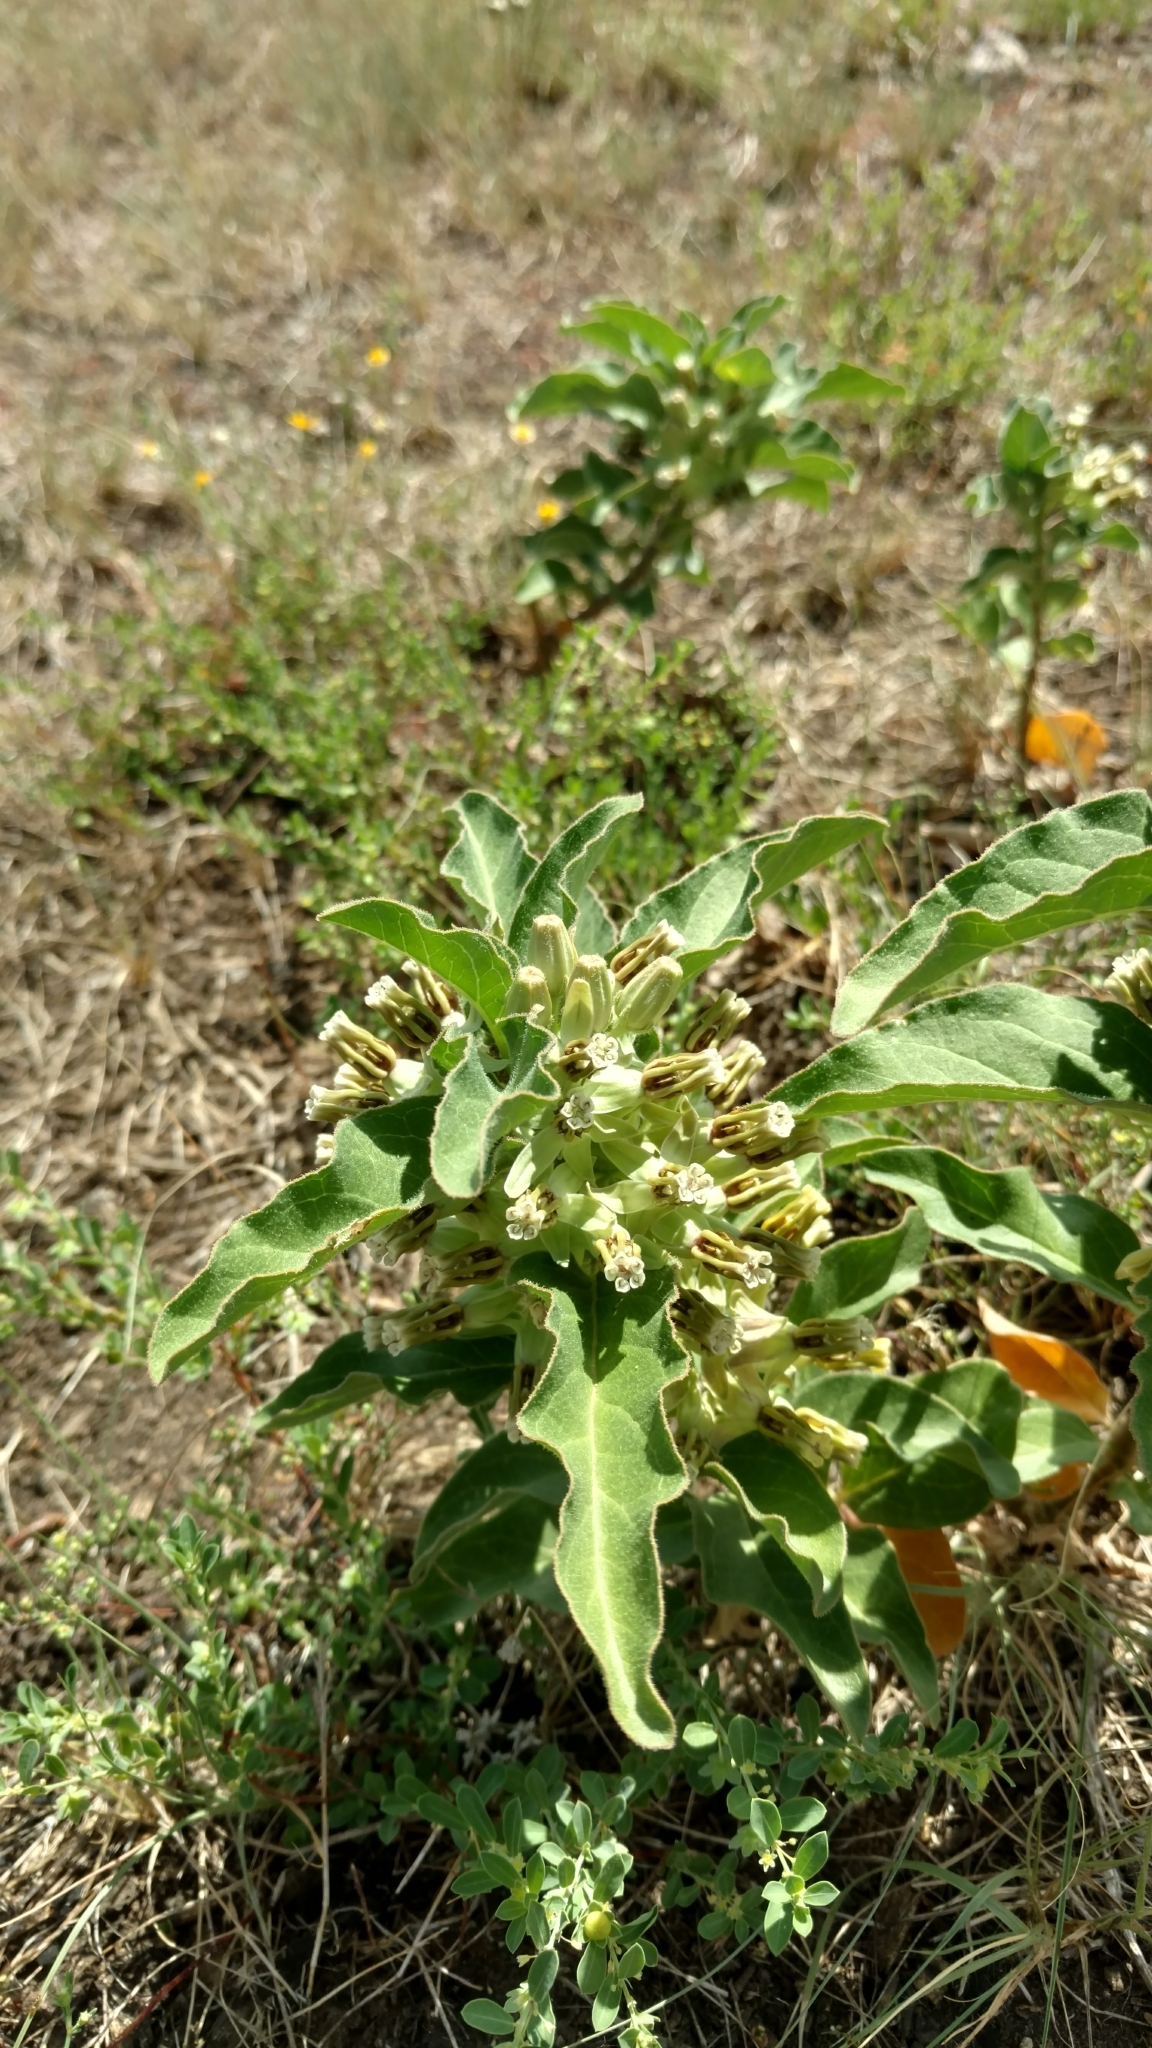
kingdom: Plantae
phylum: Tracheophyta
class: Magnoliopsida
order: Gentianales
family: Apocynaceae
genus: Asclepias
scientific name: Asclepias oenotheroides
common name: Zizotes milkweed
